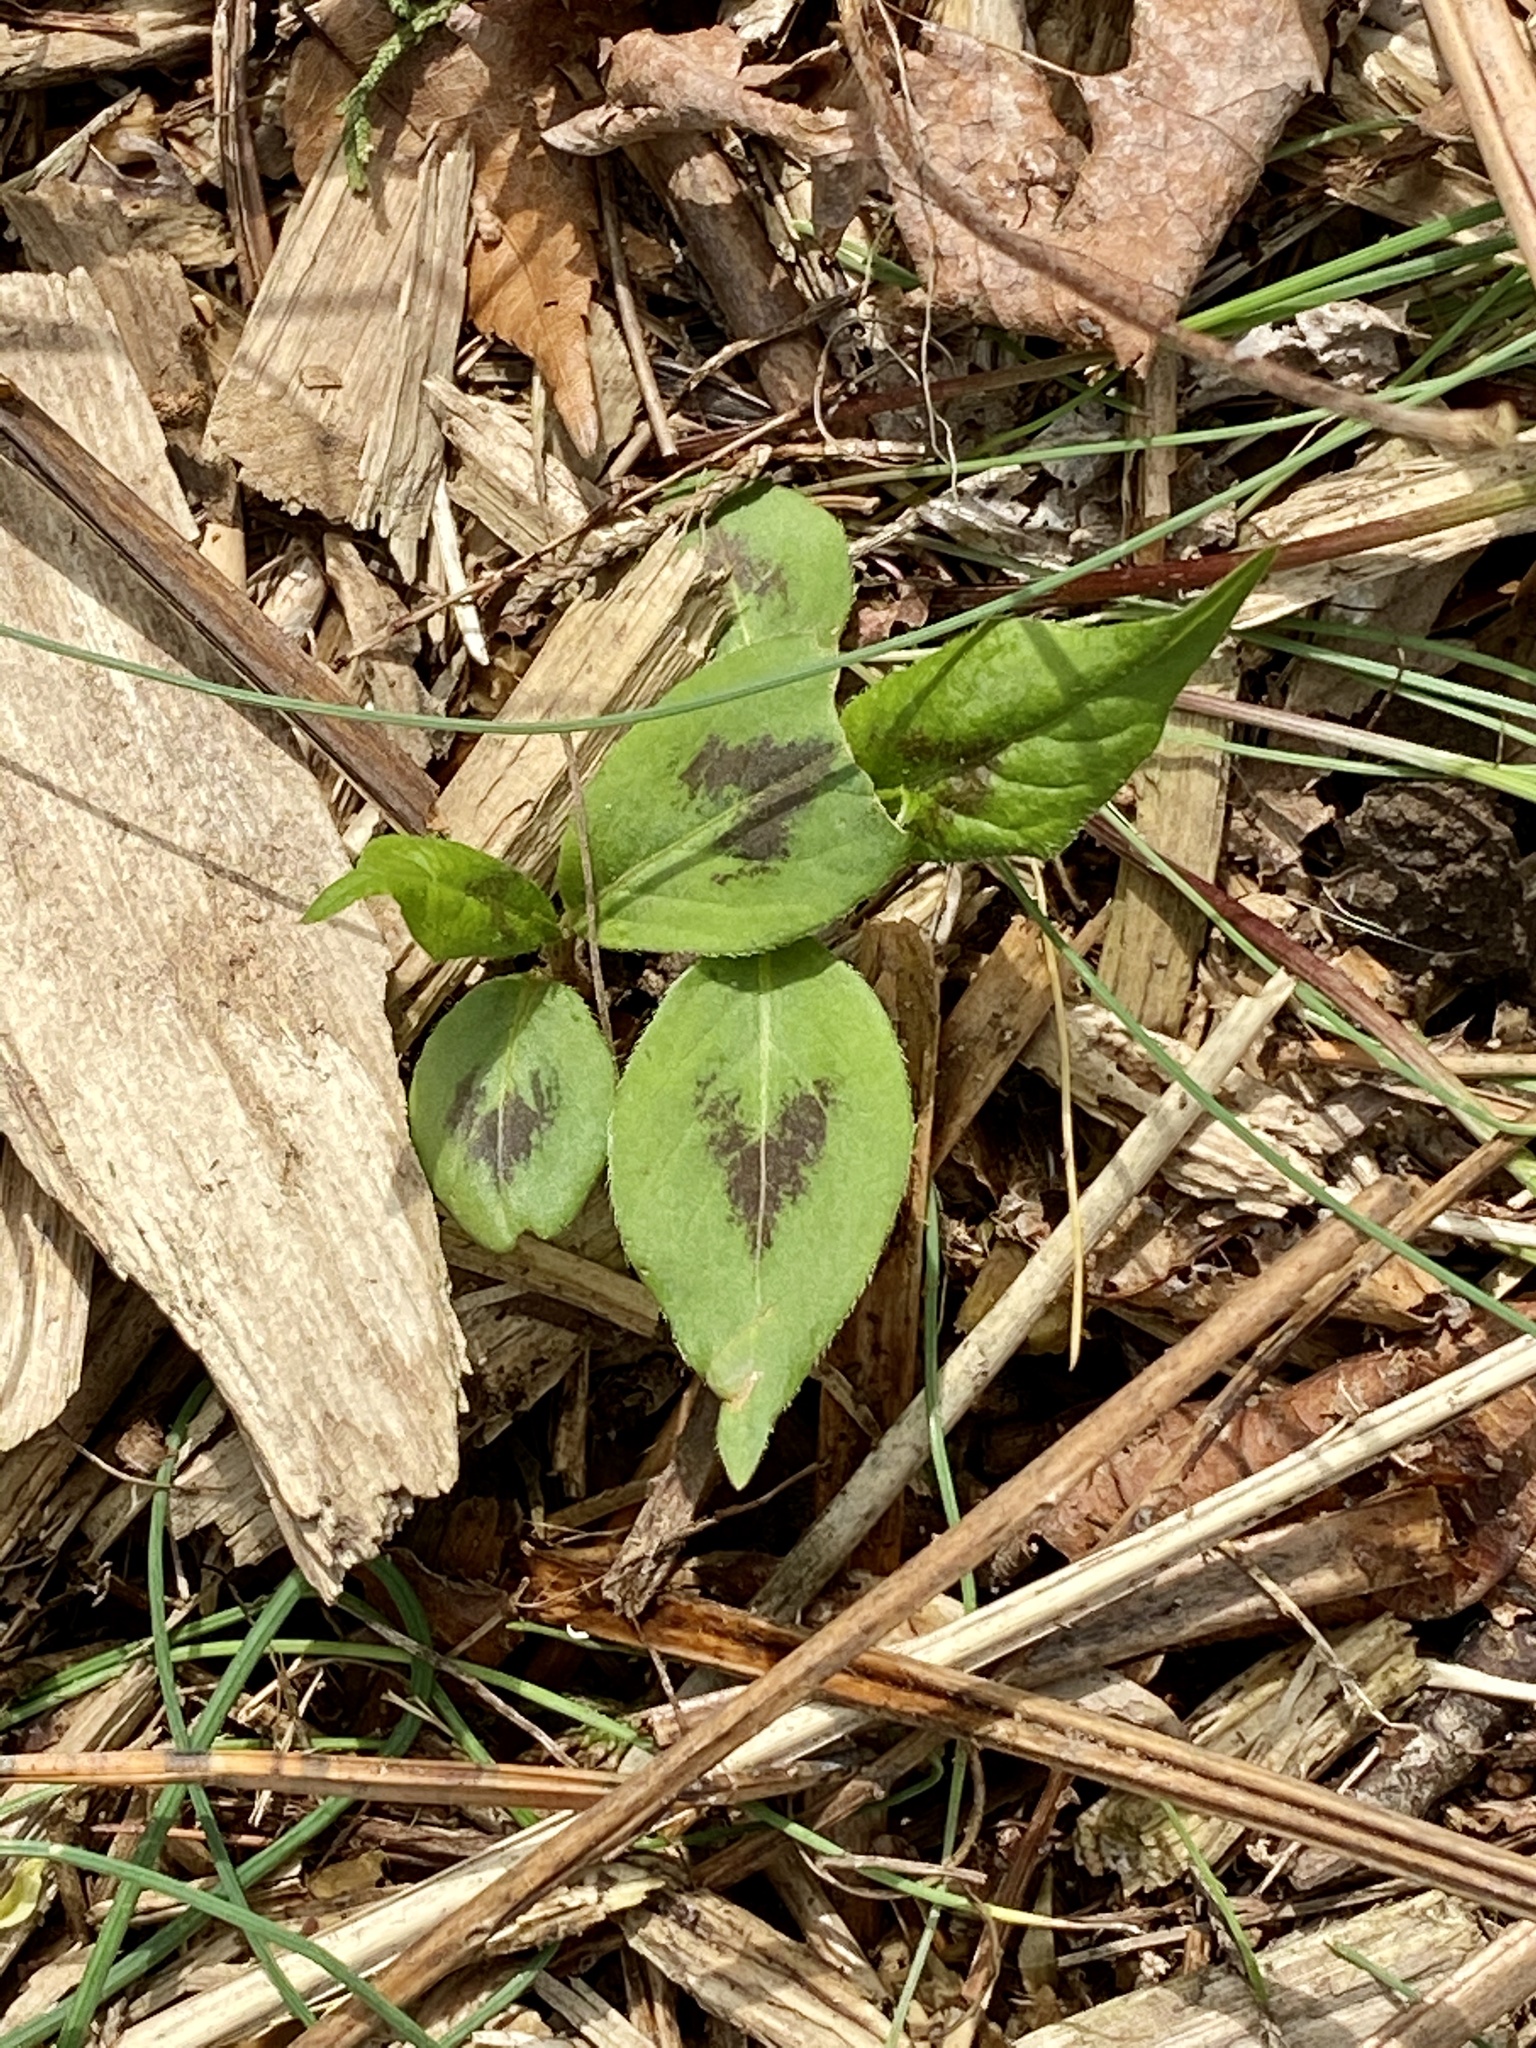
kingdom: Plantae
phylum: Tracheophyta
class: Magnoliopsida
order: Caryophyllales
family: Polygonaceae
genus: Persicaria
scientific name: Persicaria virginiana
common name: Jumpseed
